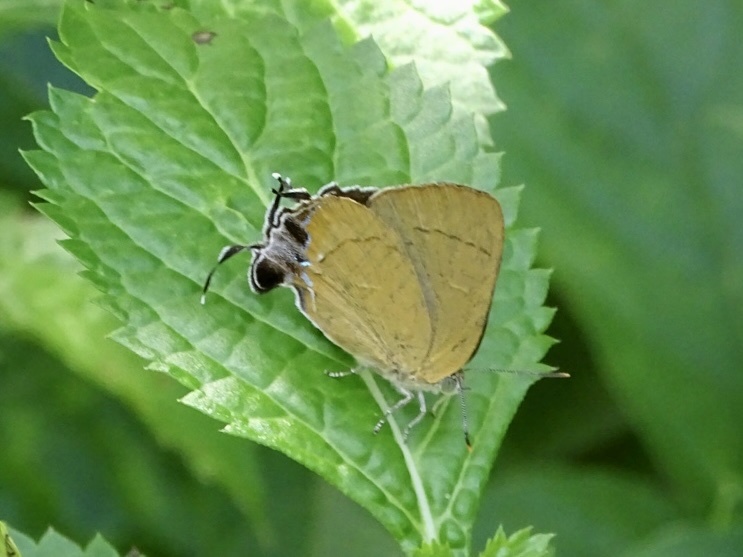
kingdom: Animalia
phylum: Arthropoda
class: Insecta
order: Lepidoptera
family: Lycaenidae
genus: Remelana
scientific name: Remelana jangala
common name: Chocolate royal
